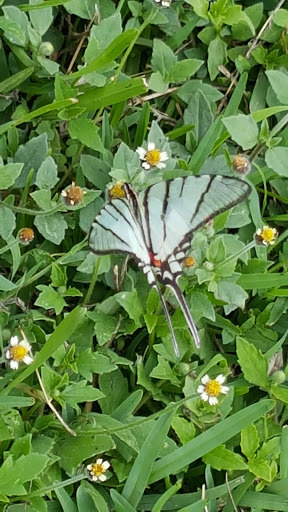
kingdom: Animalia
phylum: Arthropoda
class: Insecta
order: Lepidoptera
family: Papilionidae
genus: Protographium
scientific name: Protographium epidaus
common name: Mexican kite swallowtail
